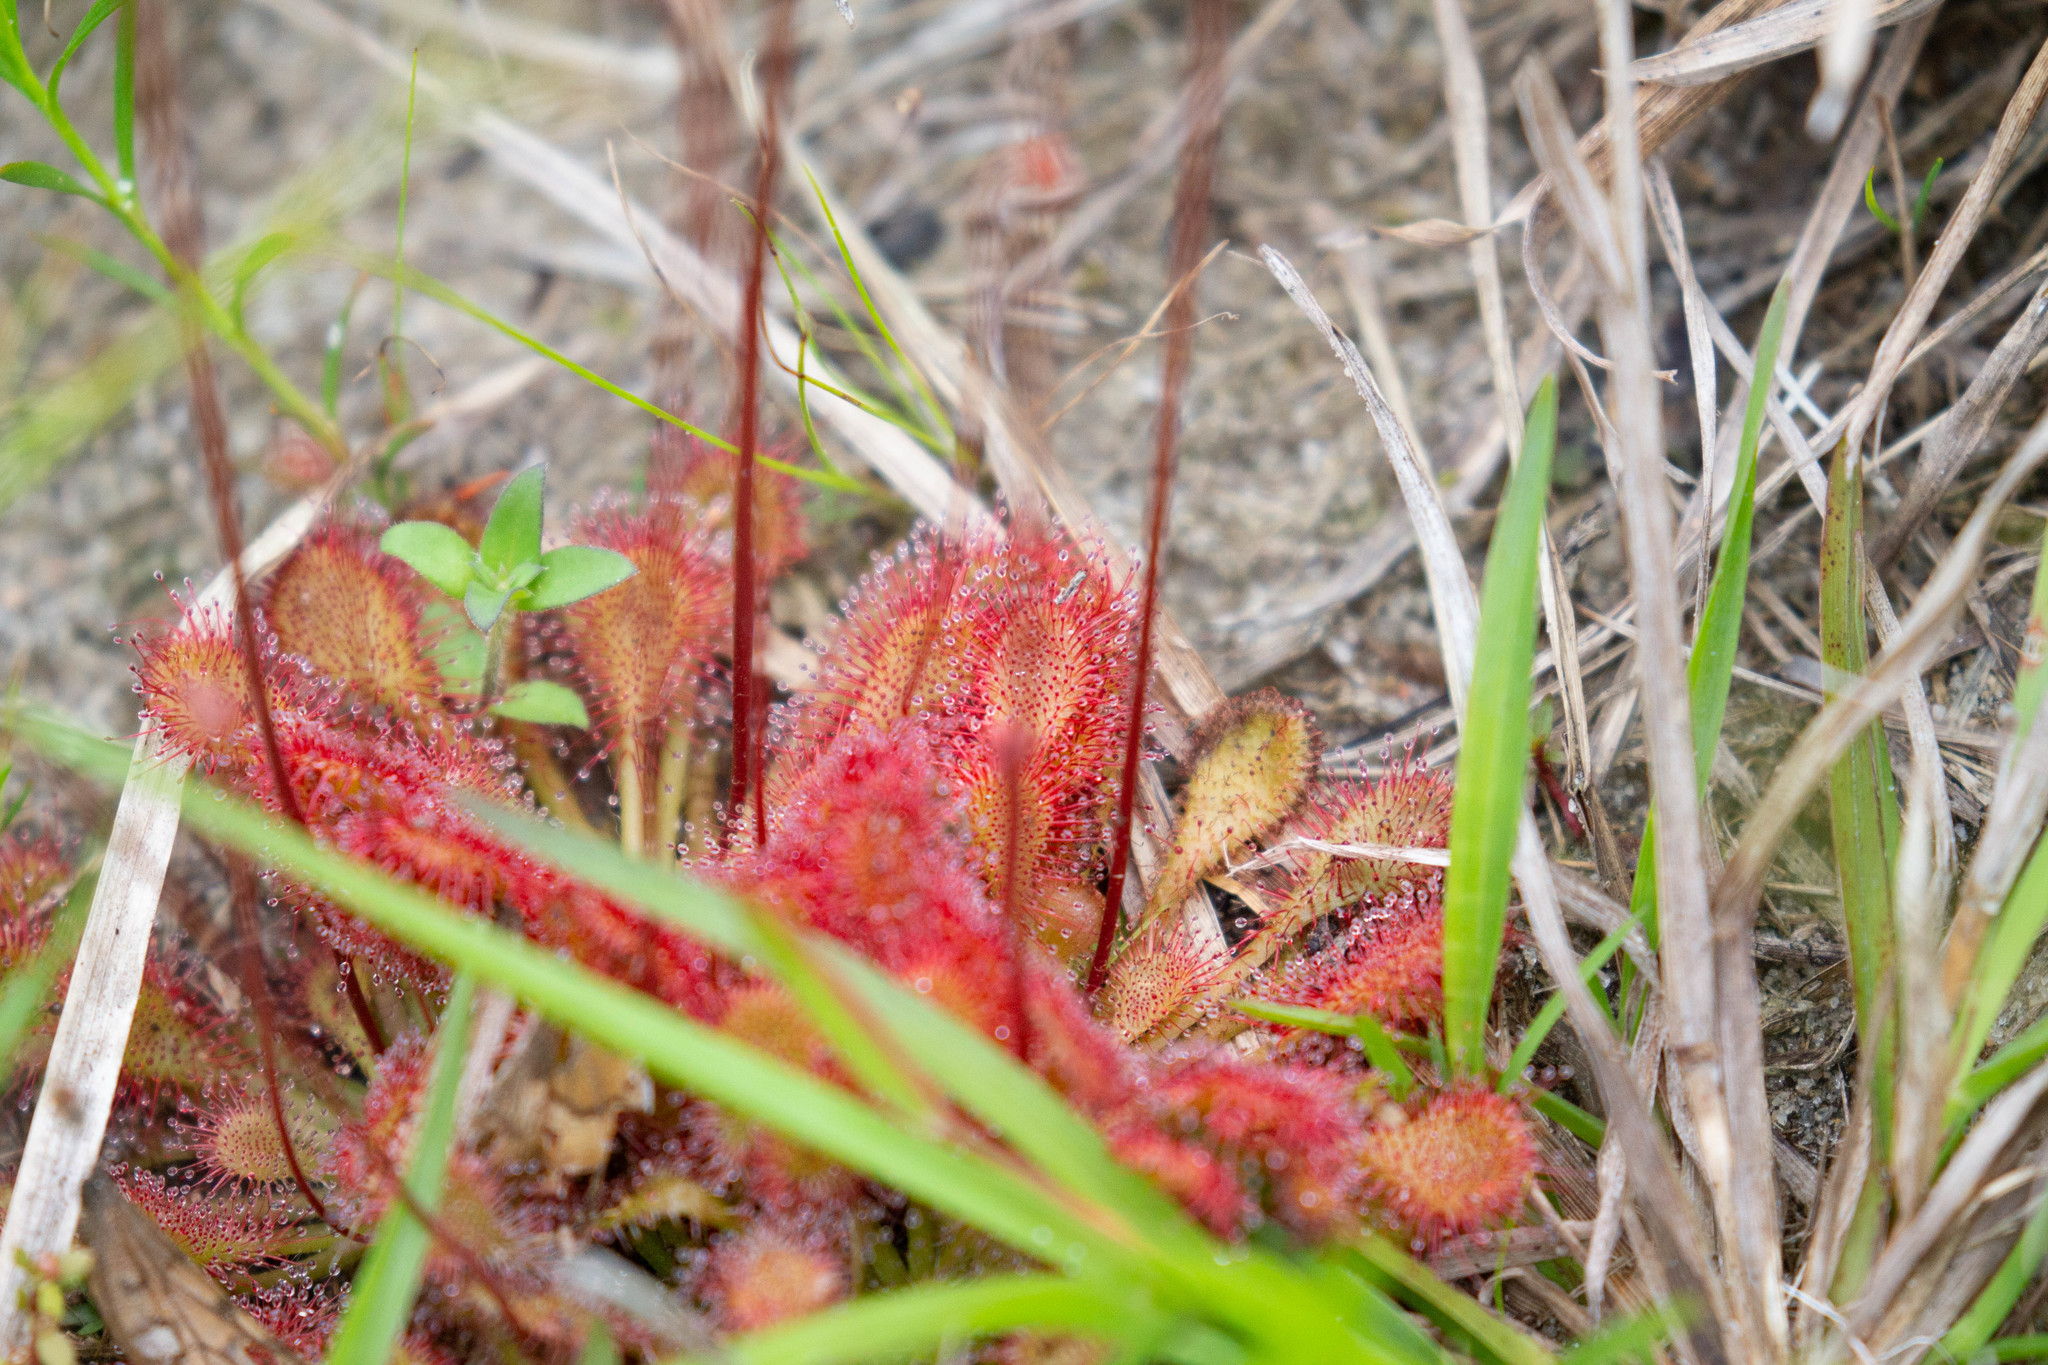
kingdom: Plantae
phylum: Tracheophyta
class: Magnoliopsida
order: Caryophyllales
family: Droseraceae
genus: Drosera
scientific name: Drosera capillaris
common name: Pink sundew
